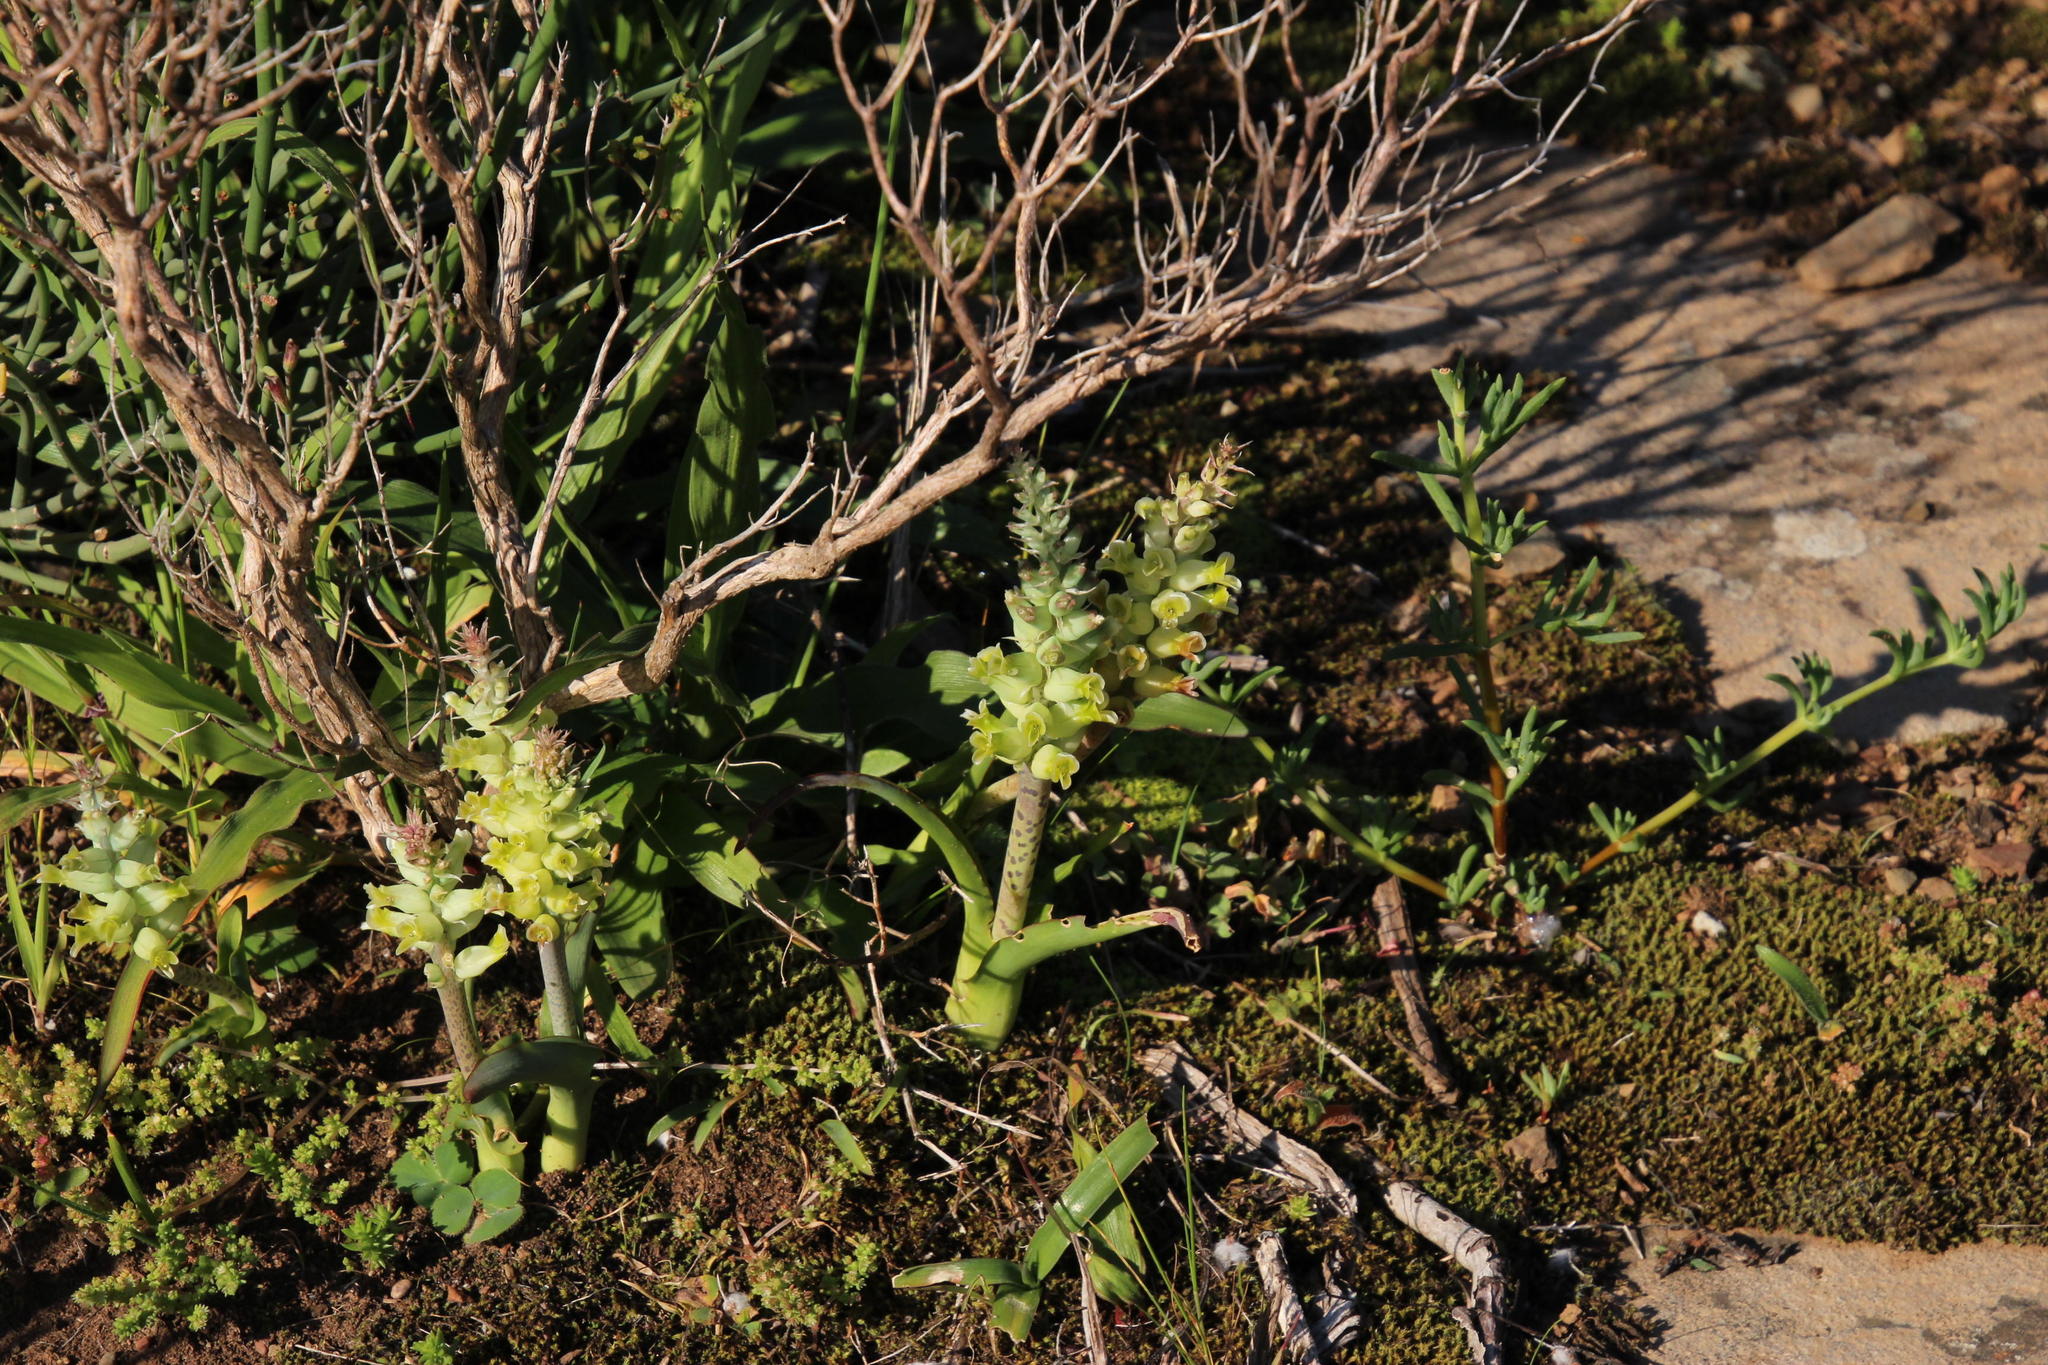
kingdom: Plantae
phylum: Tracheophyta
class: Liliopsida
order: Asparagales
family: Asparagaceae
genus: Lachenalia
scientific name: Lachenalia orchioides
